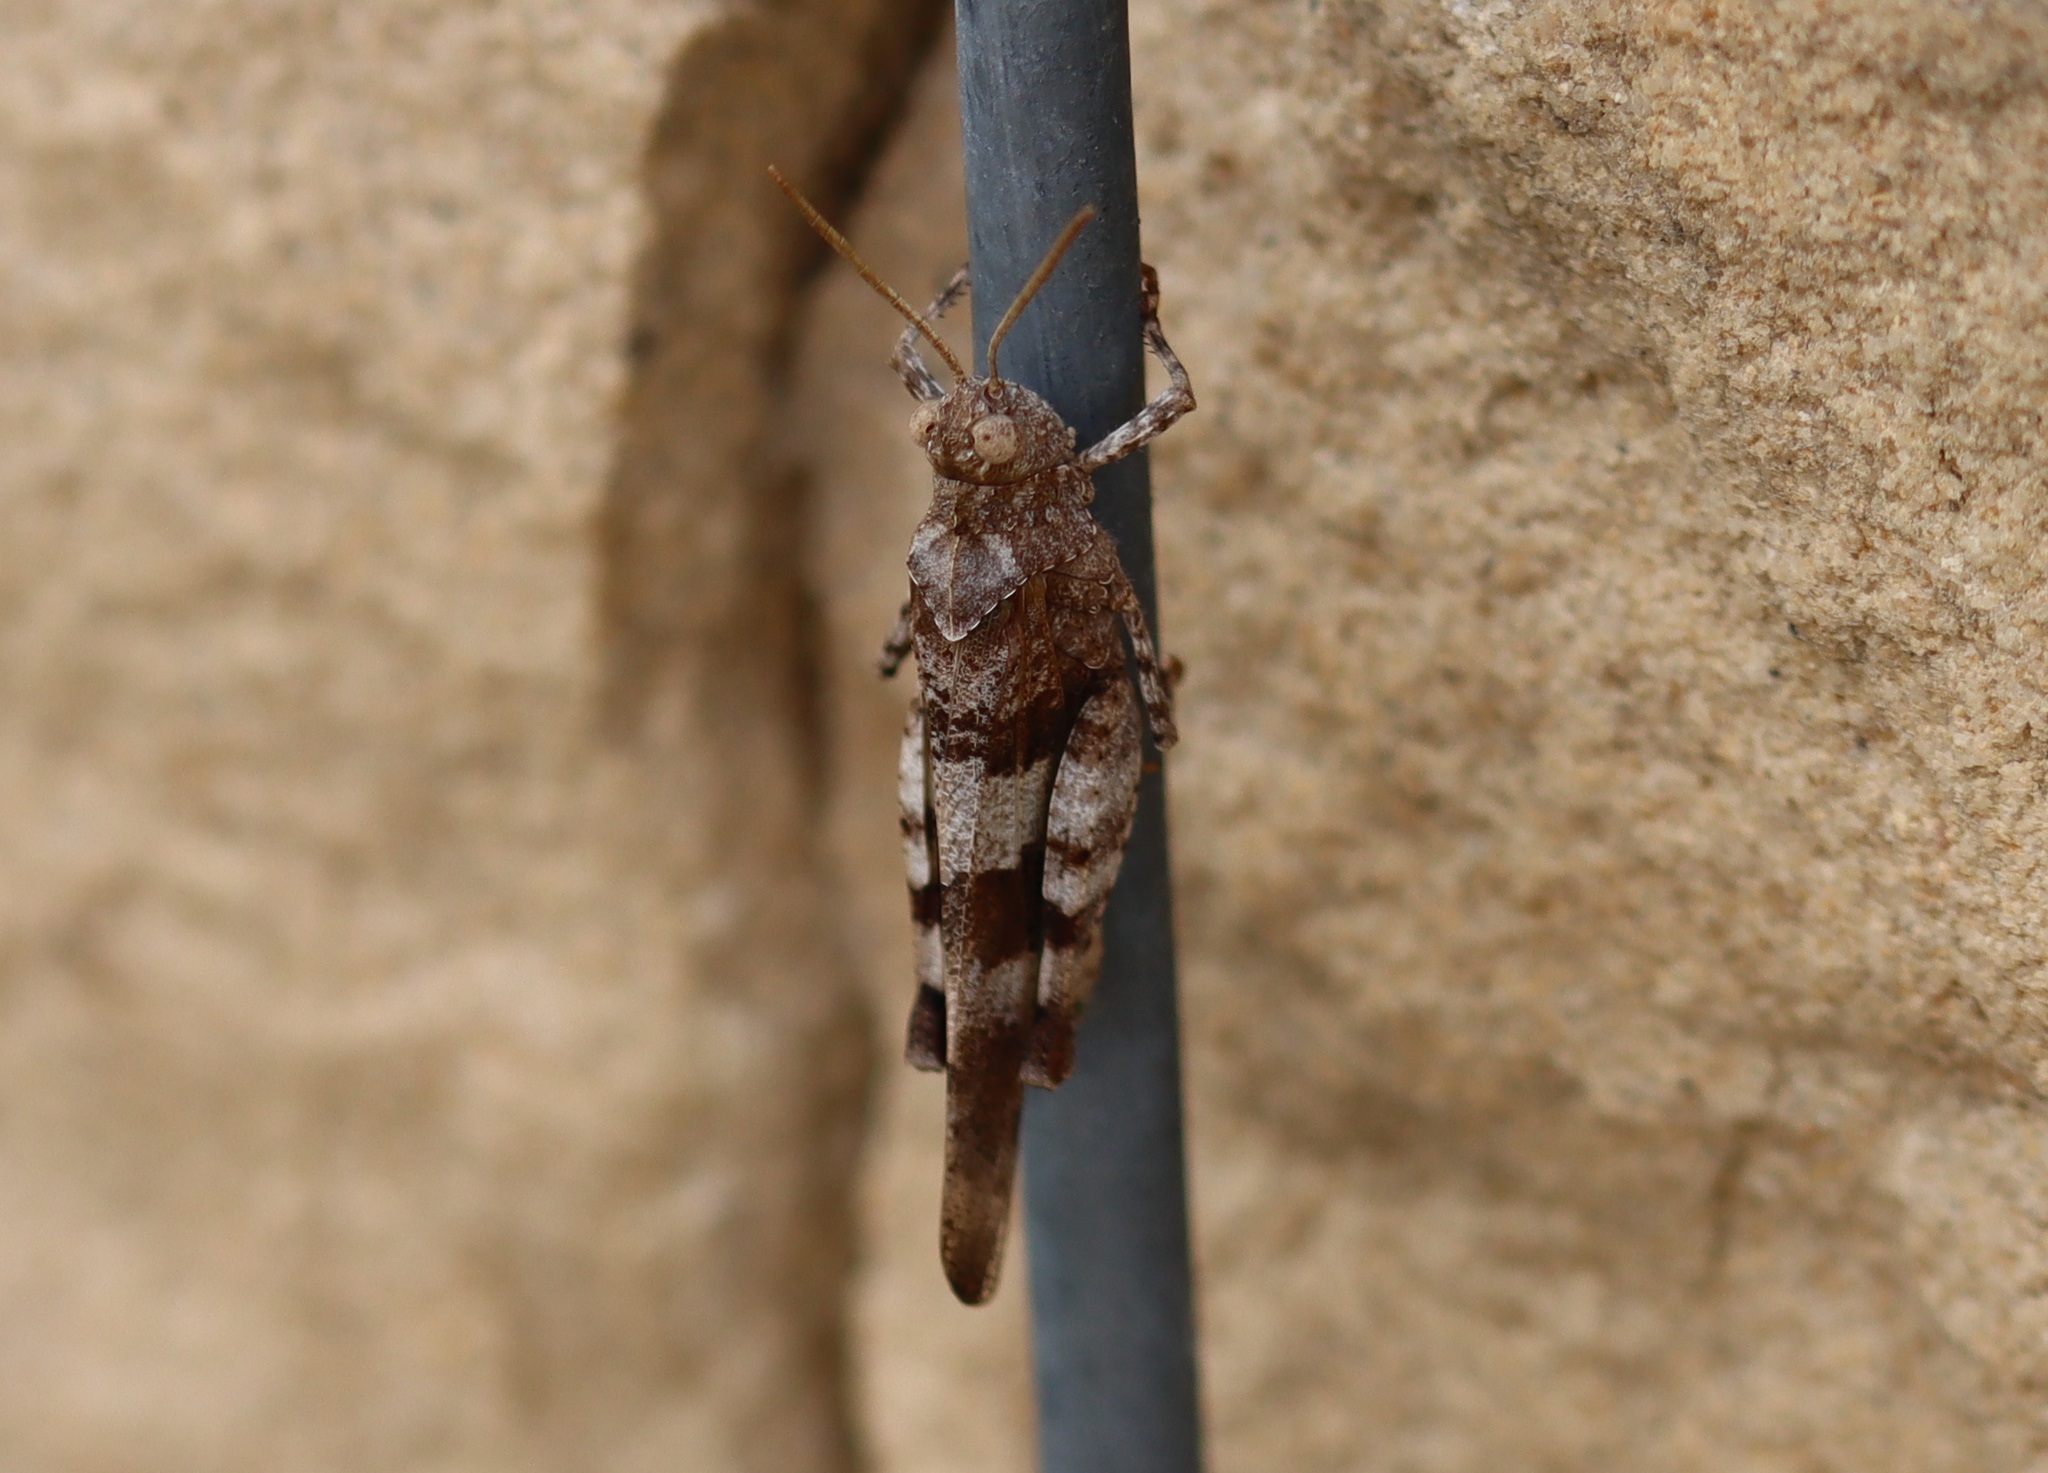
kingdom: Animalia
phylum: Arthropoda
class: Insecta
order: Orthoptera
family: Acrididae
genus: Oedipoda
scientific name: Oedipoda caerulescens
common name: Blue-winged grasshopper
